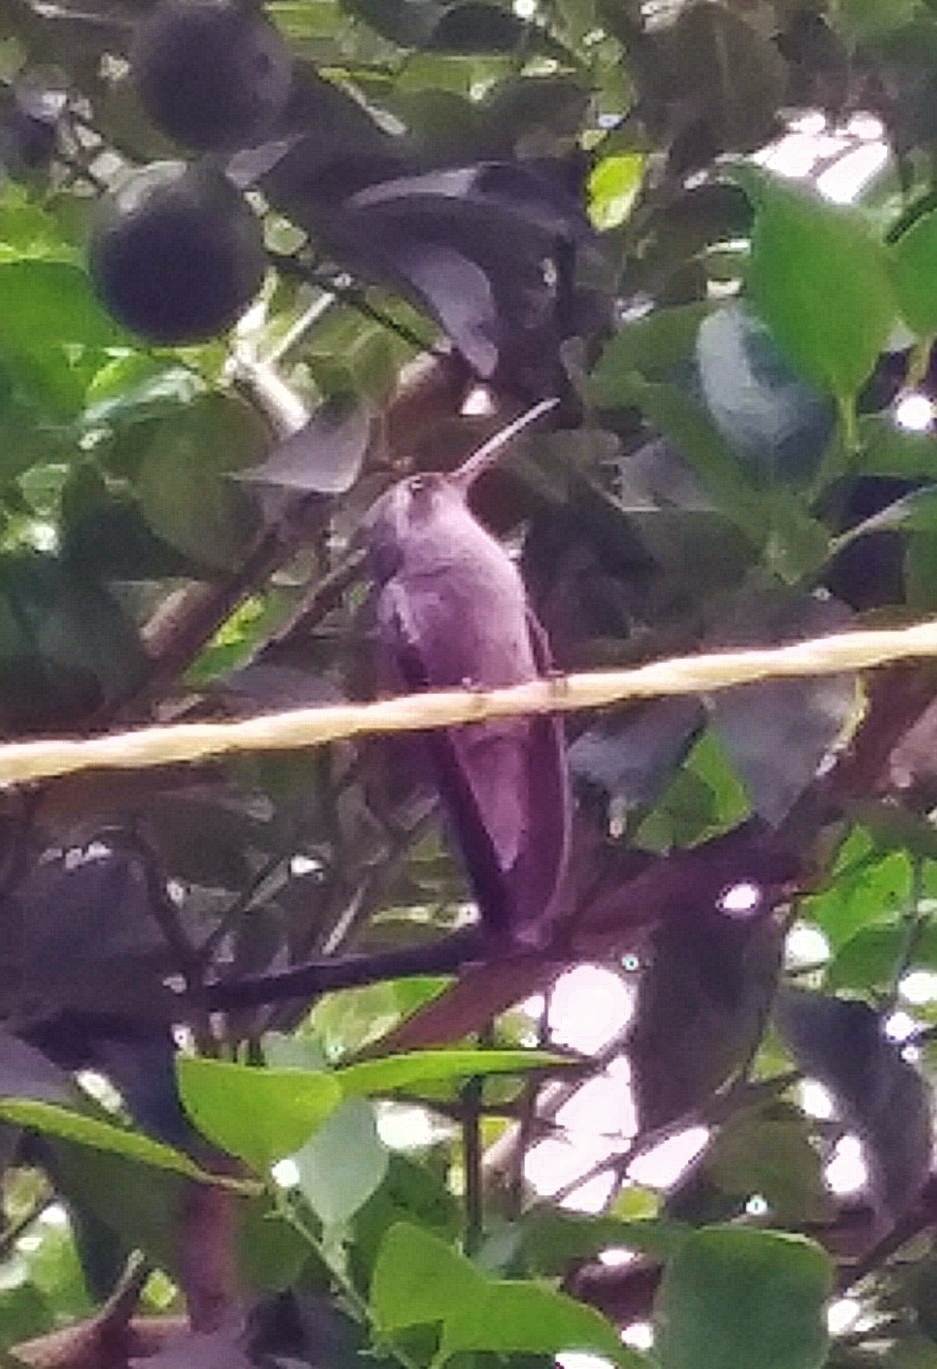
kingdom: Animalia
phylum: Chordata
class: Aves
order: Apodiformes
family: Trochilidae
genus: Cynanthus
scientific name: Cynanthus latirostris
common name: Broad-billed hummingbird
